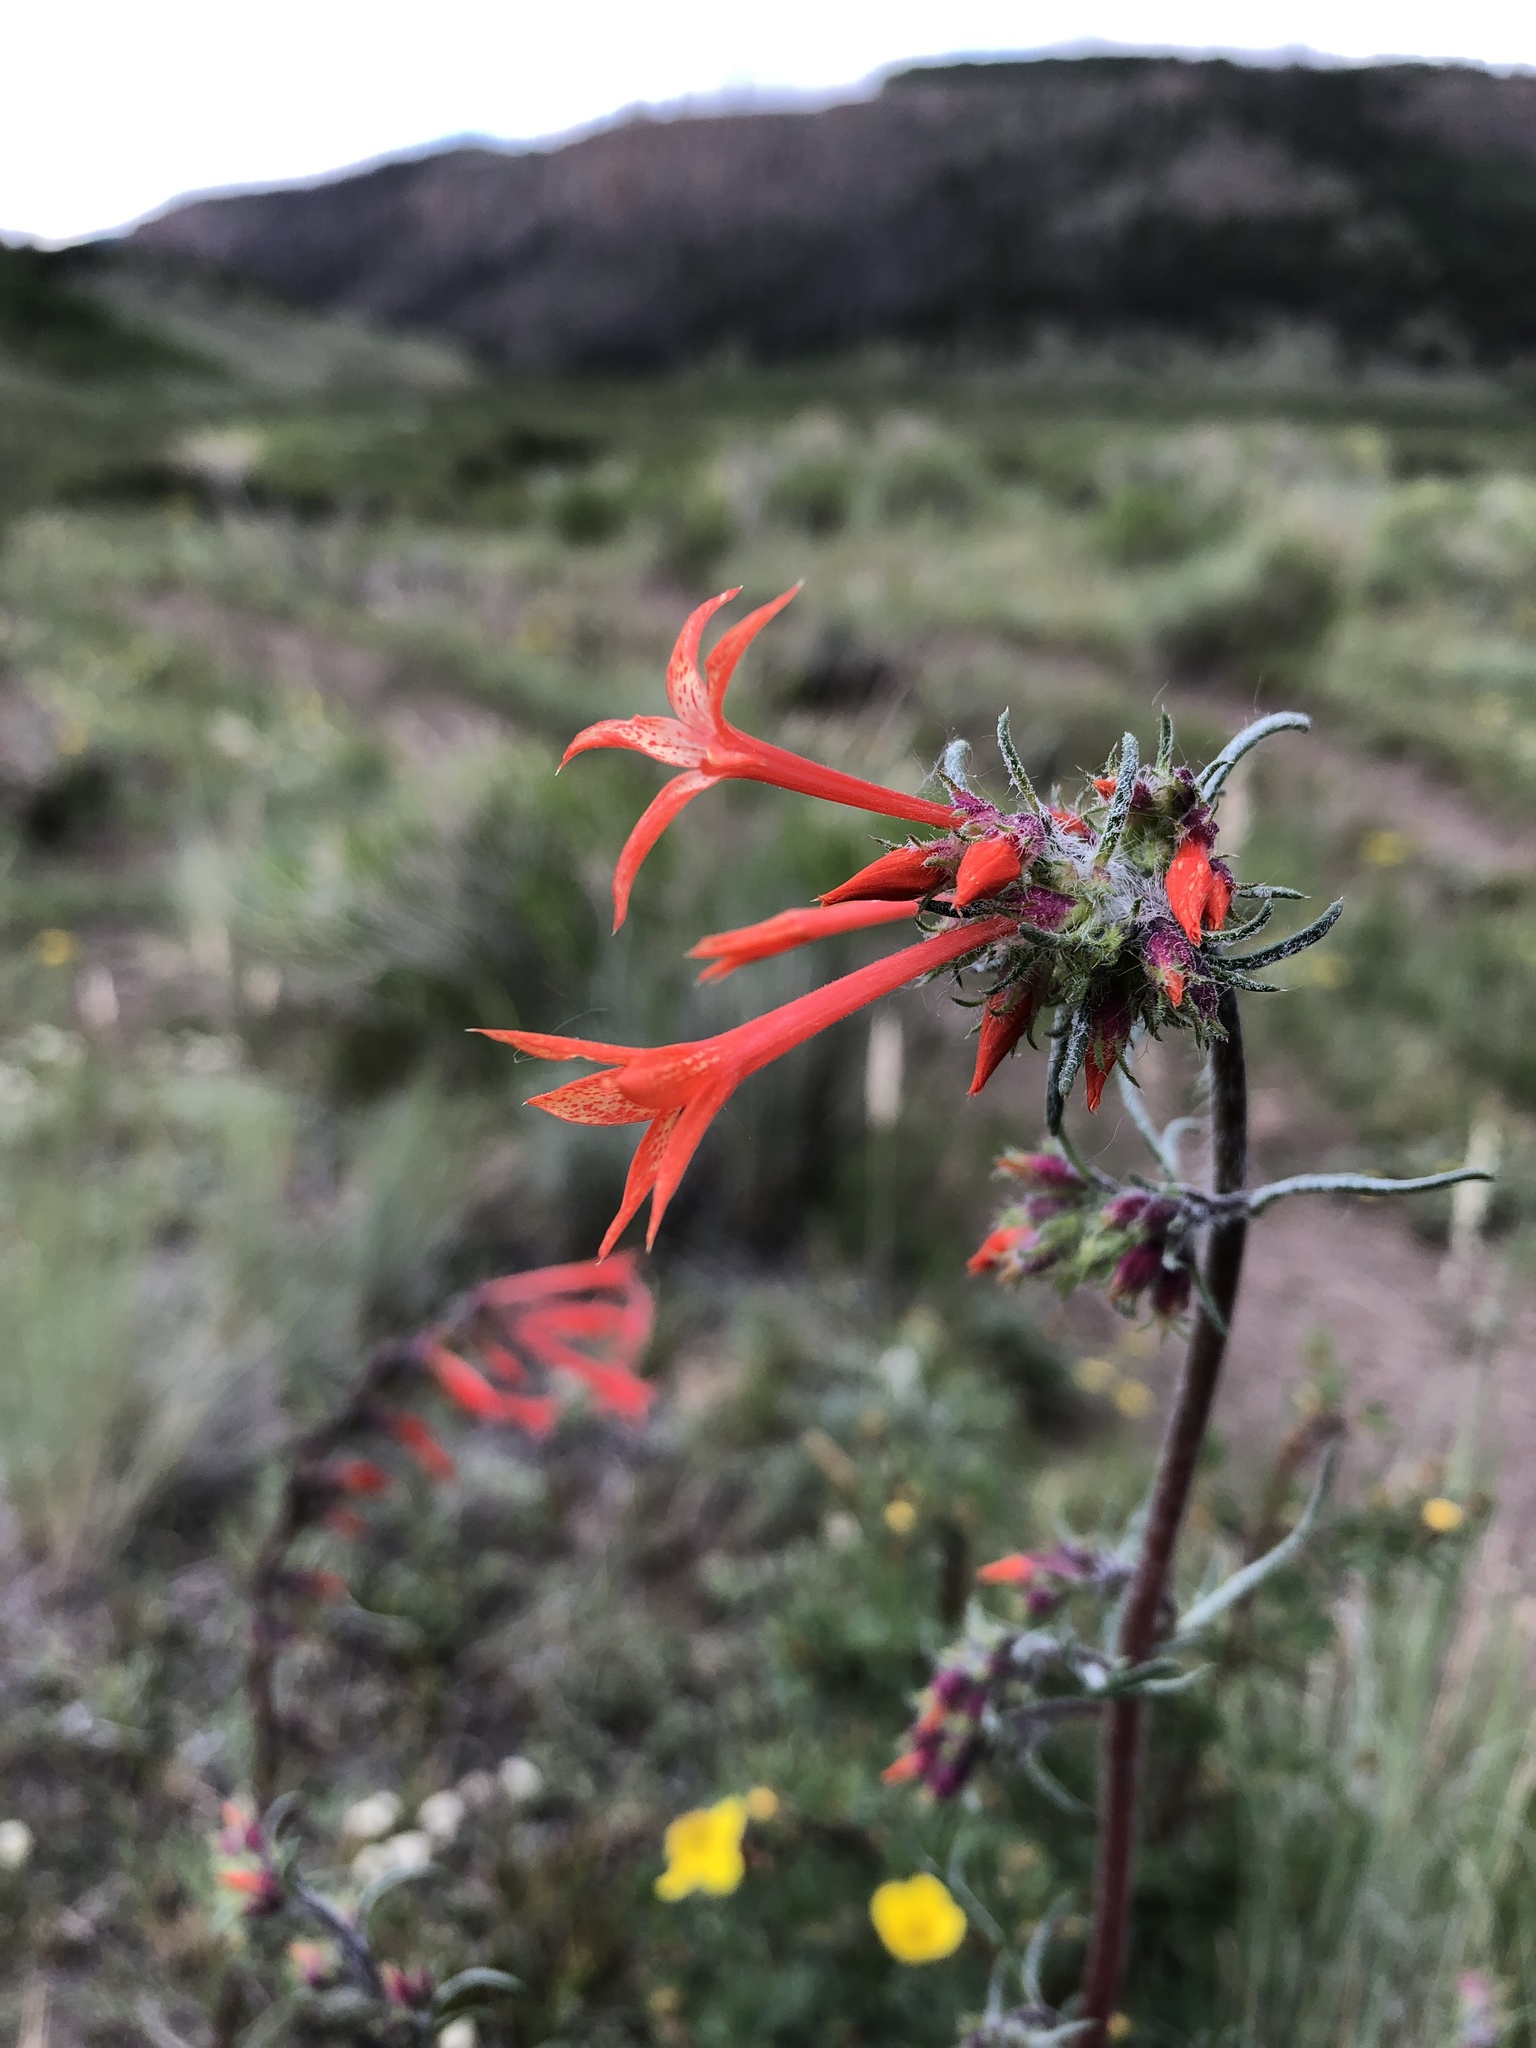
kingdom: Plantae
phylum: Tracheophyta
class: Magnoliopsida
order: Ericales
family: Polemoniaceae
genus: Ipomopsis
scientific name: Ipomopsis aggregata
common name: Scarlet gilia
